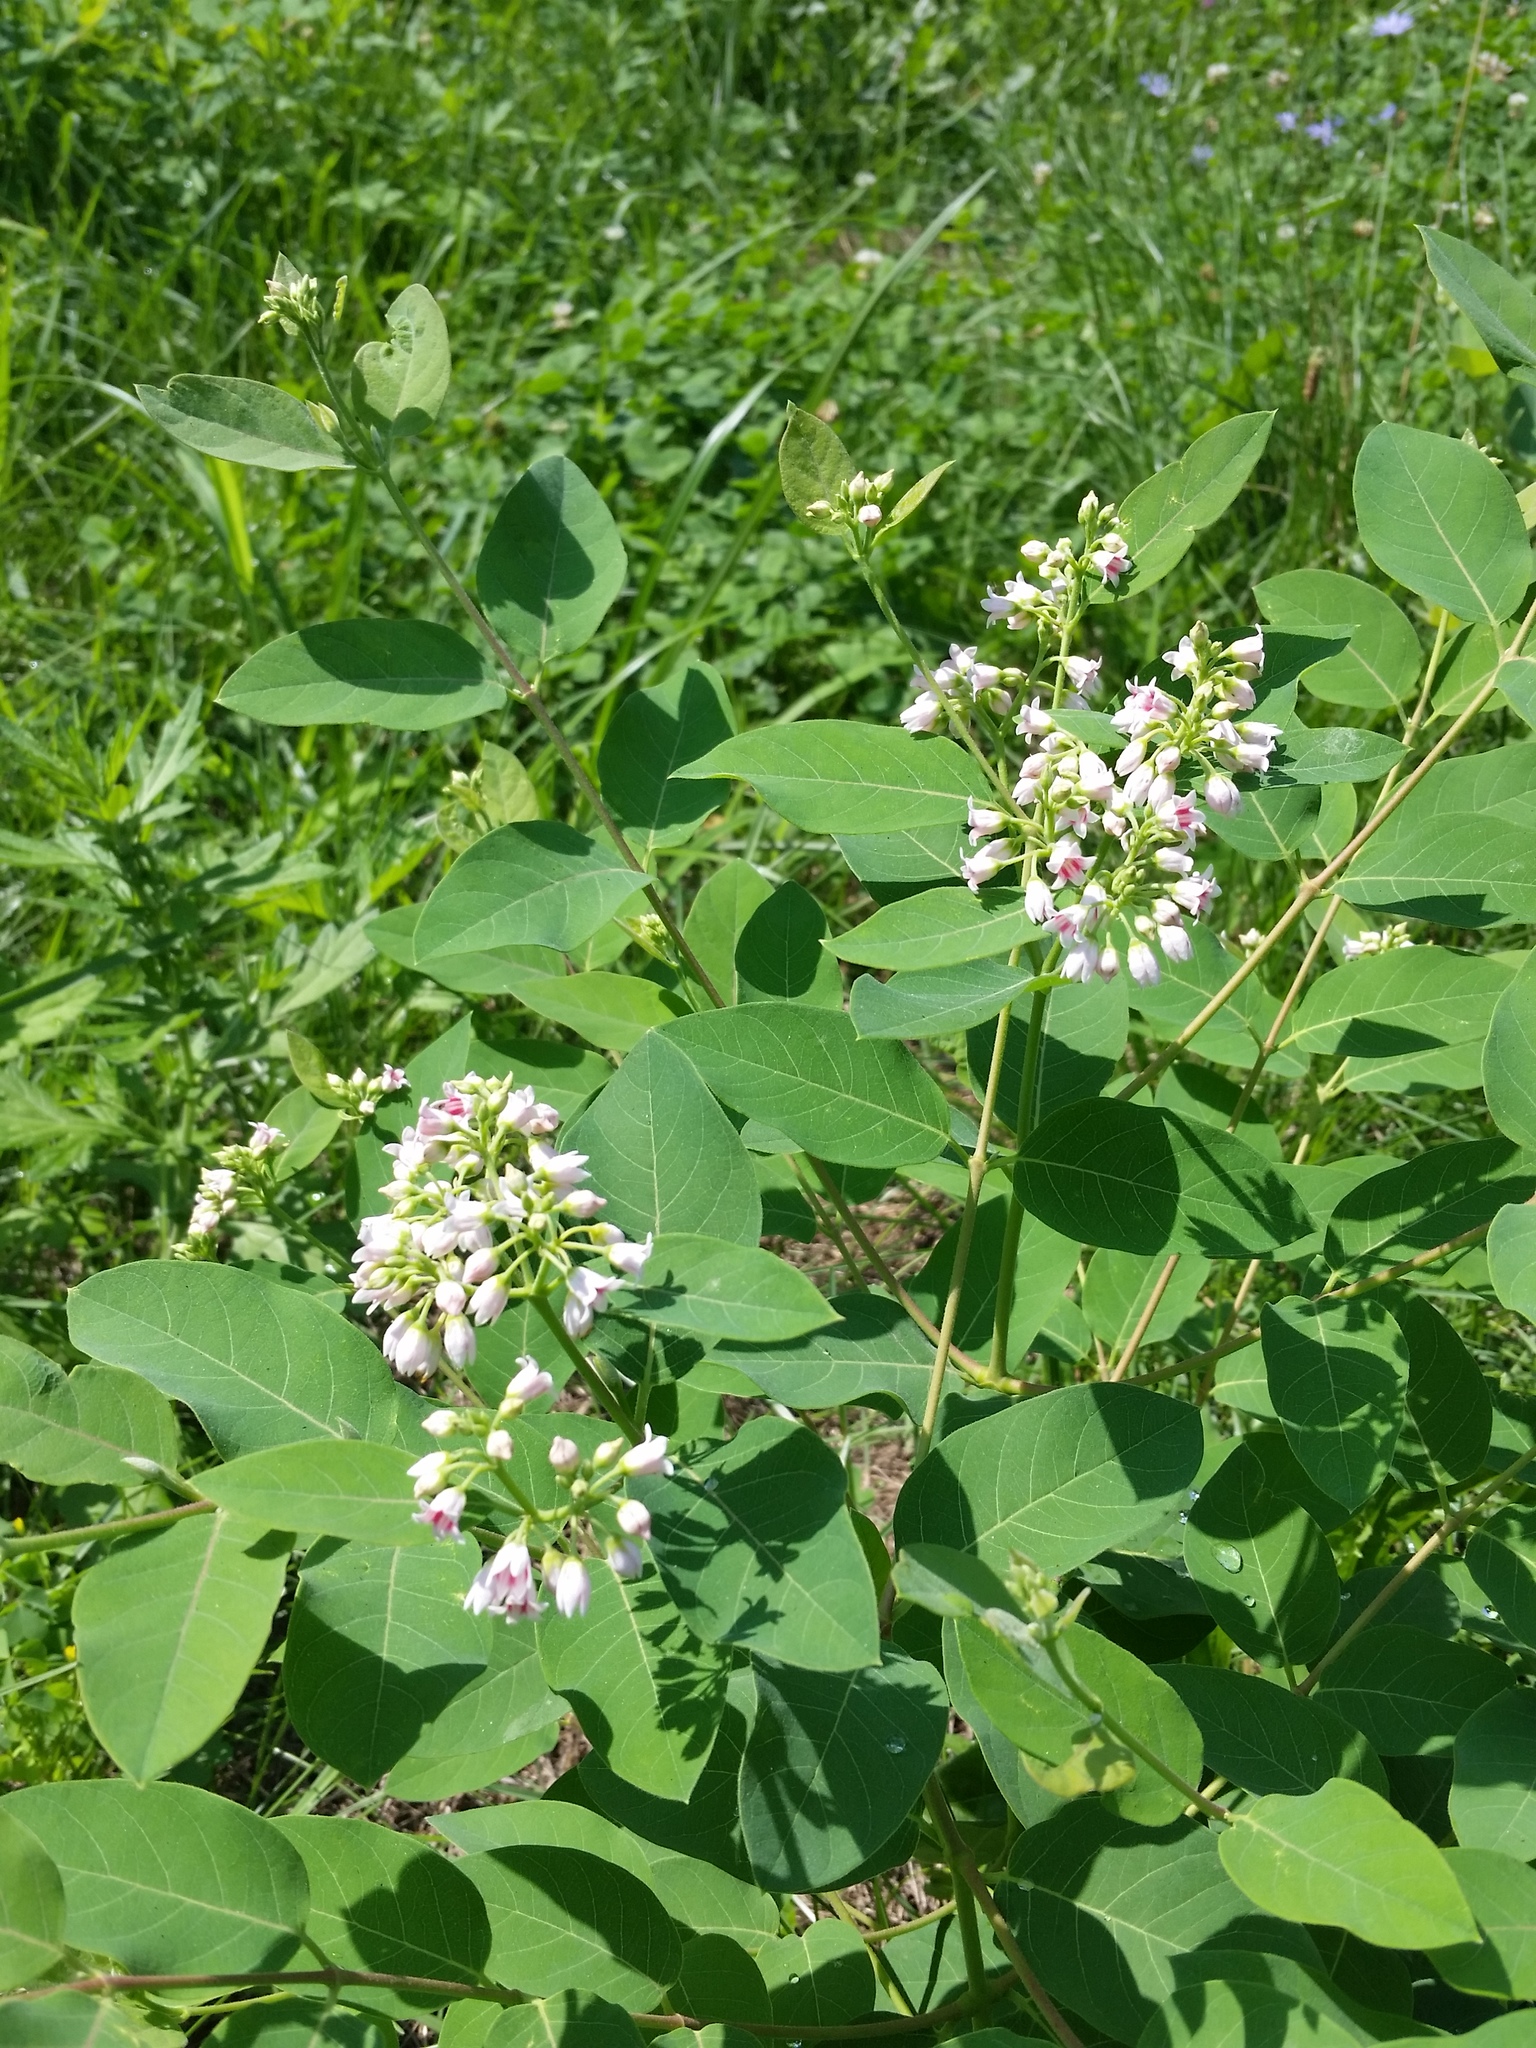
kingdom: Plantae
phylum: Tracheophyta
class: Magnoliopsida
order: Gentianales
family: Apocynaceae
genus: Apocynum
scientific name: Apocynum androsaemifolium
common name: Spreading dogbane
